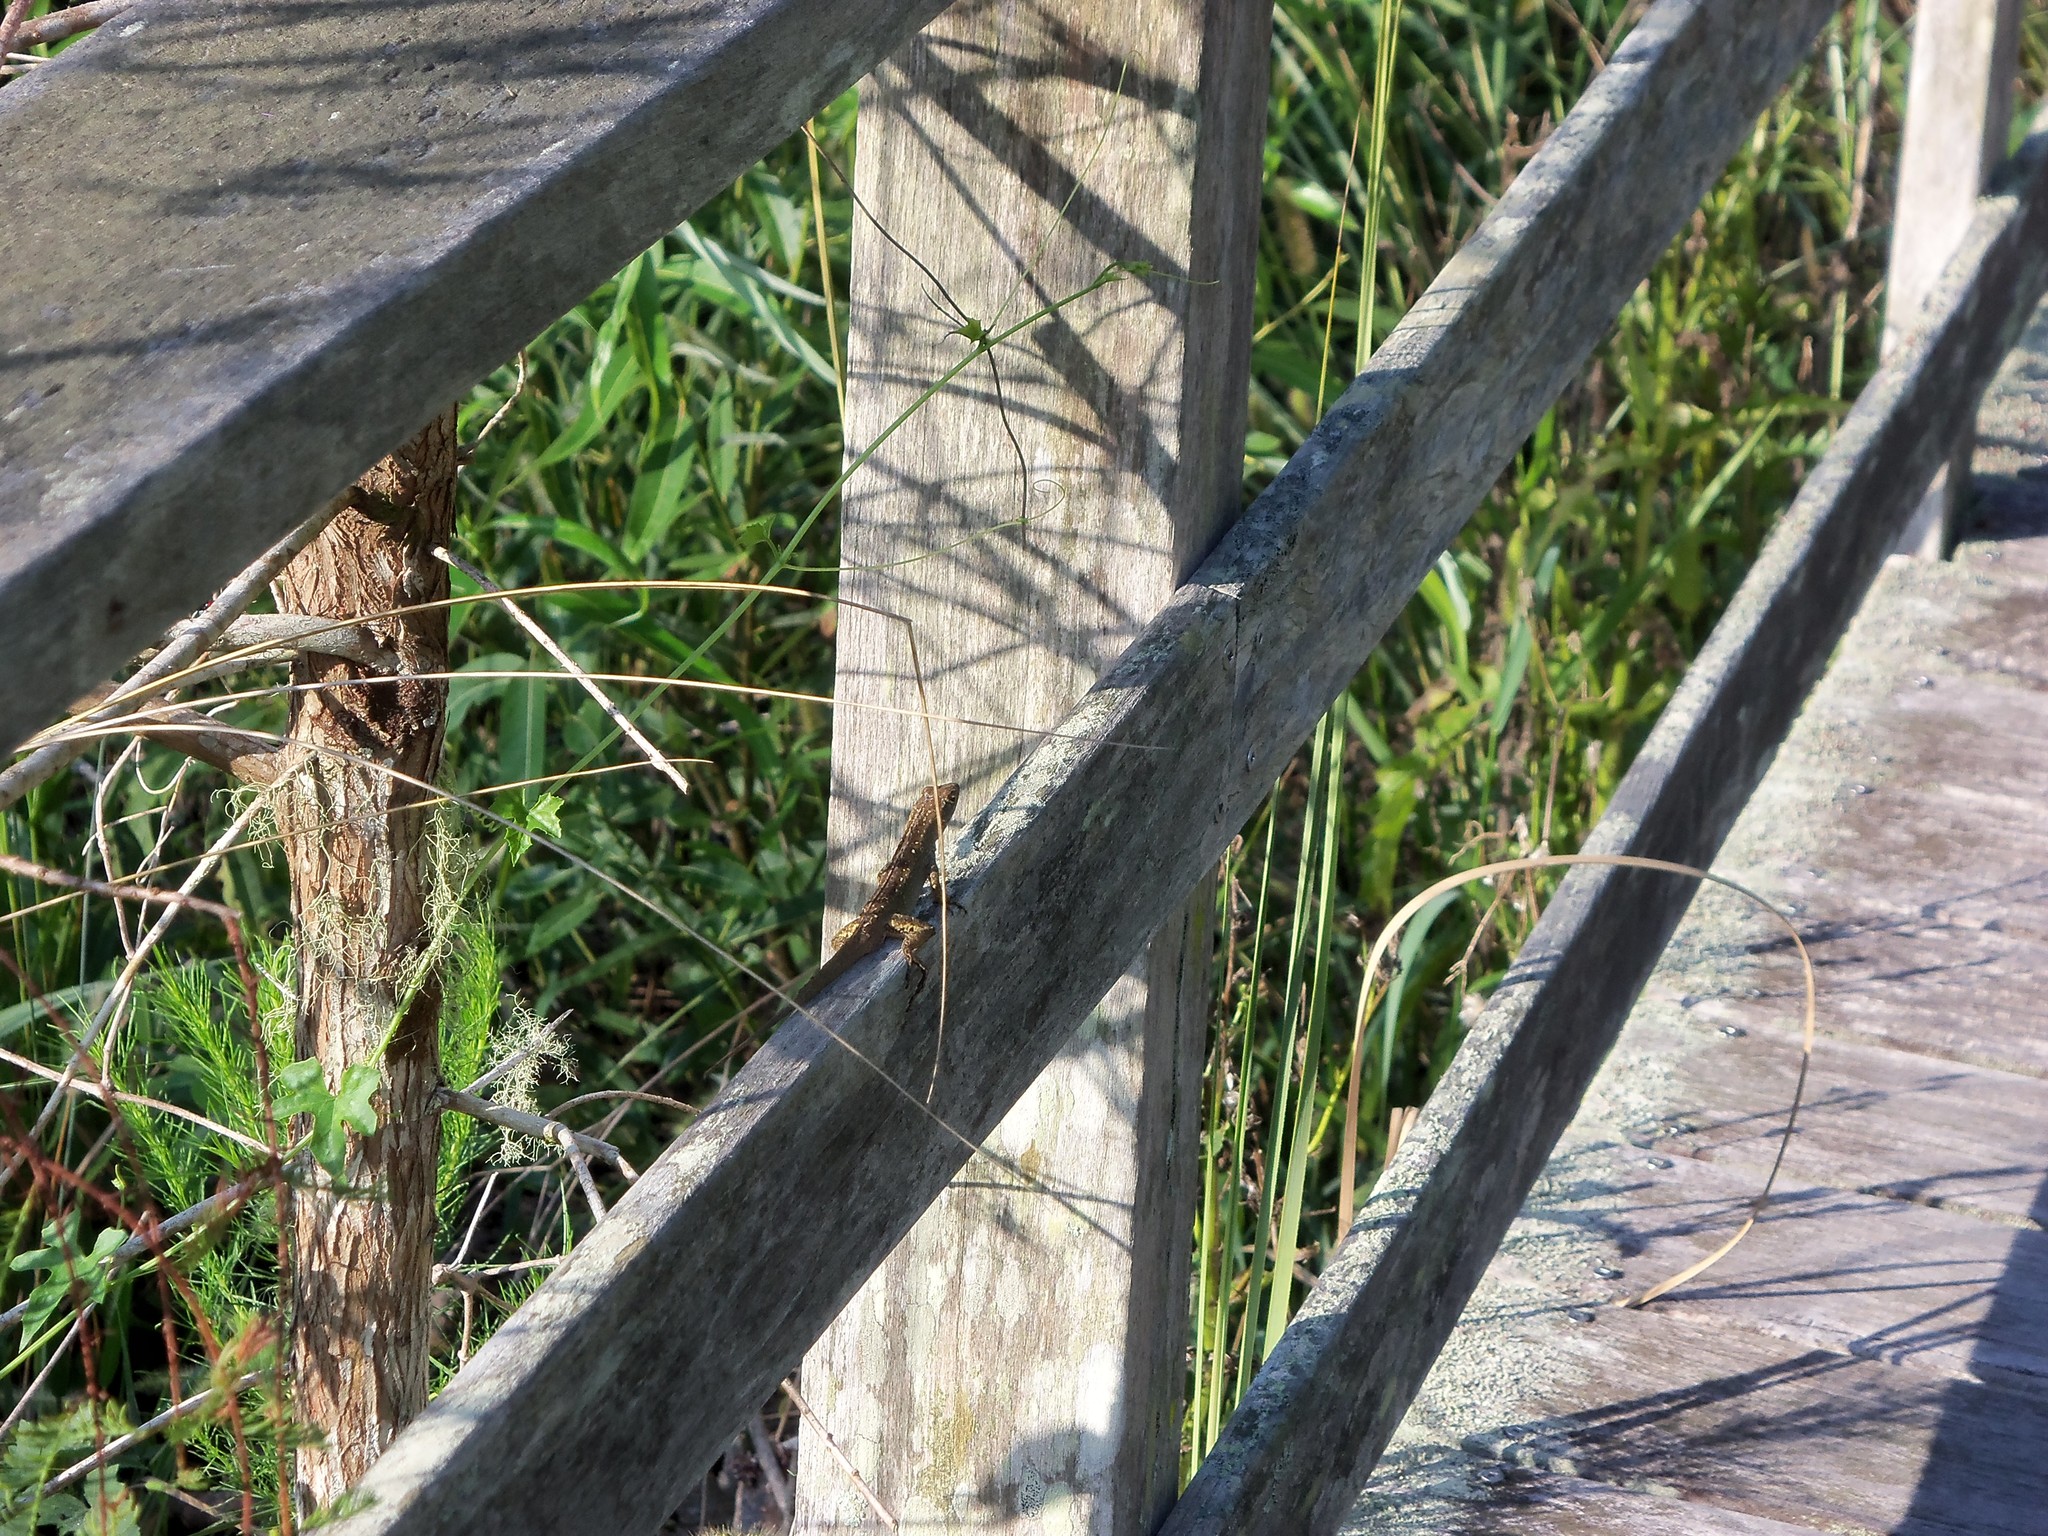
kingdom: Animalia
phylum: Chordata
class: Squamata
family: Dactyloidae
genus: Anolis
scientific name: Anolis sagrei
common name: Brown anole
